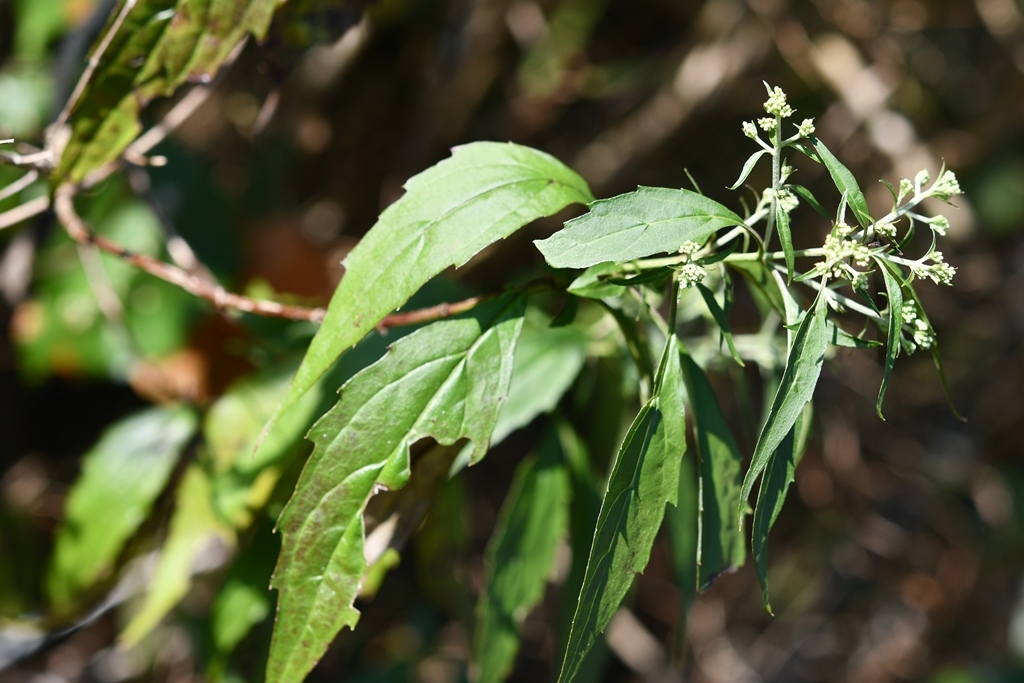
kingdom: Plantae
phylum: Tracheophyta
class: Magnoliopsida
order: Asterales
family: Asteraceae
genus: Fleischmanniopsis
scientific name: Fleischmanniopsis leucocephala
